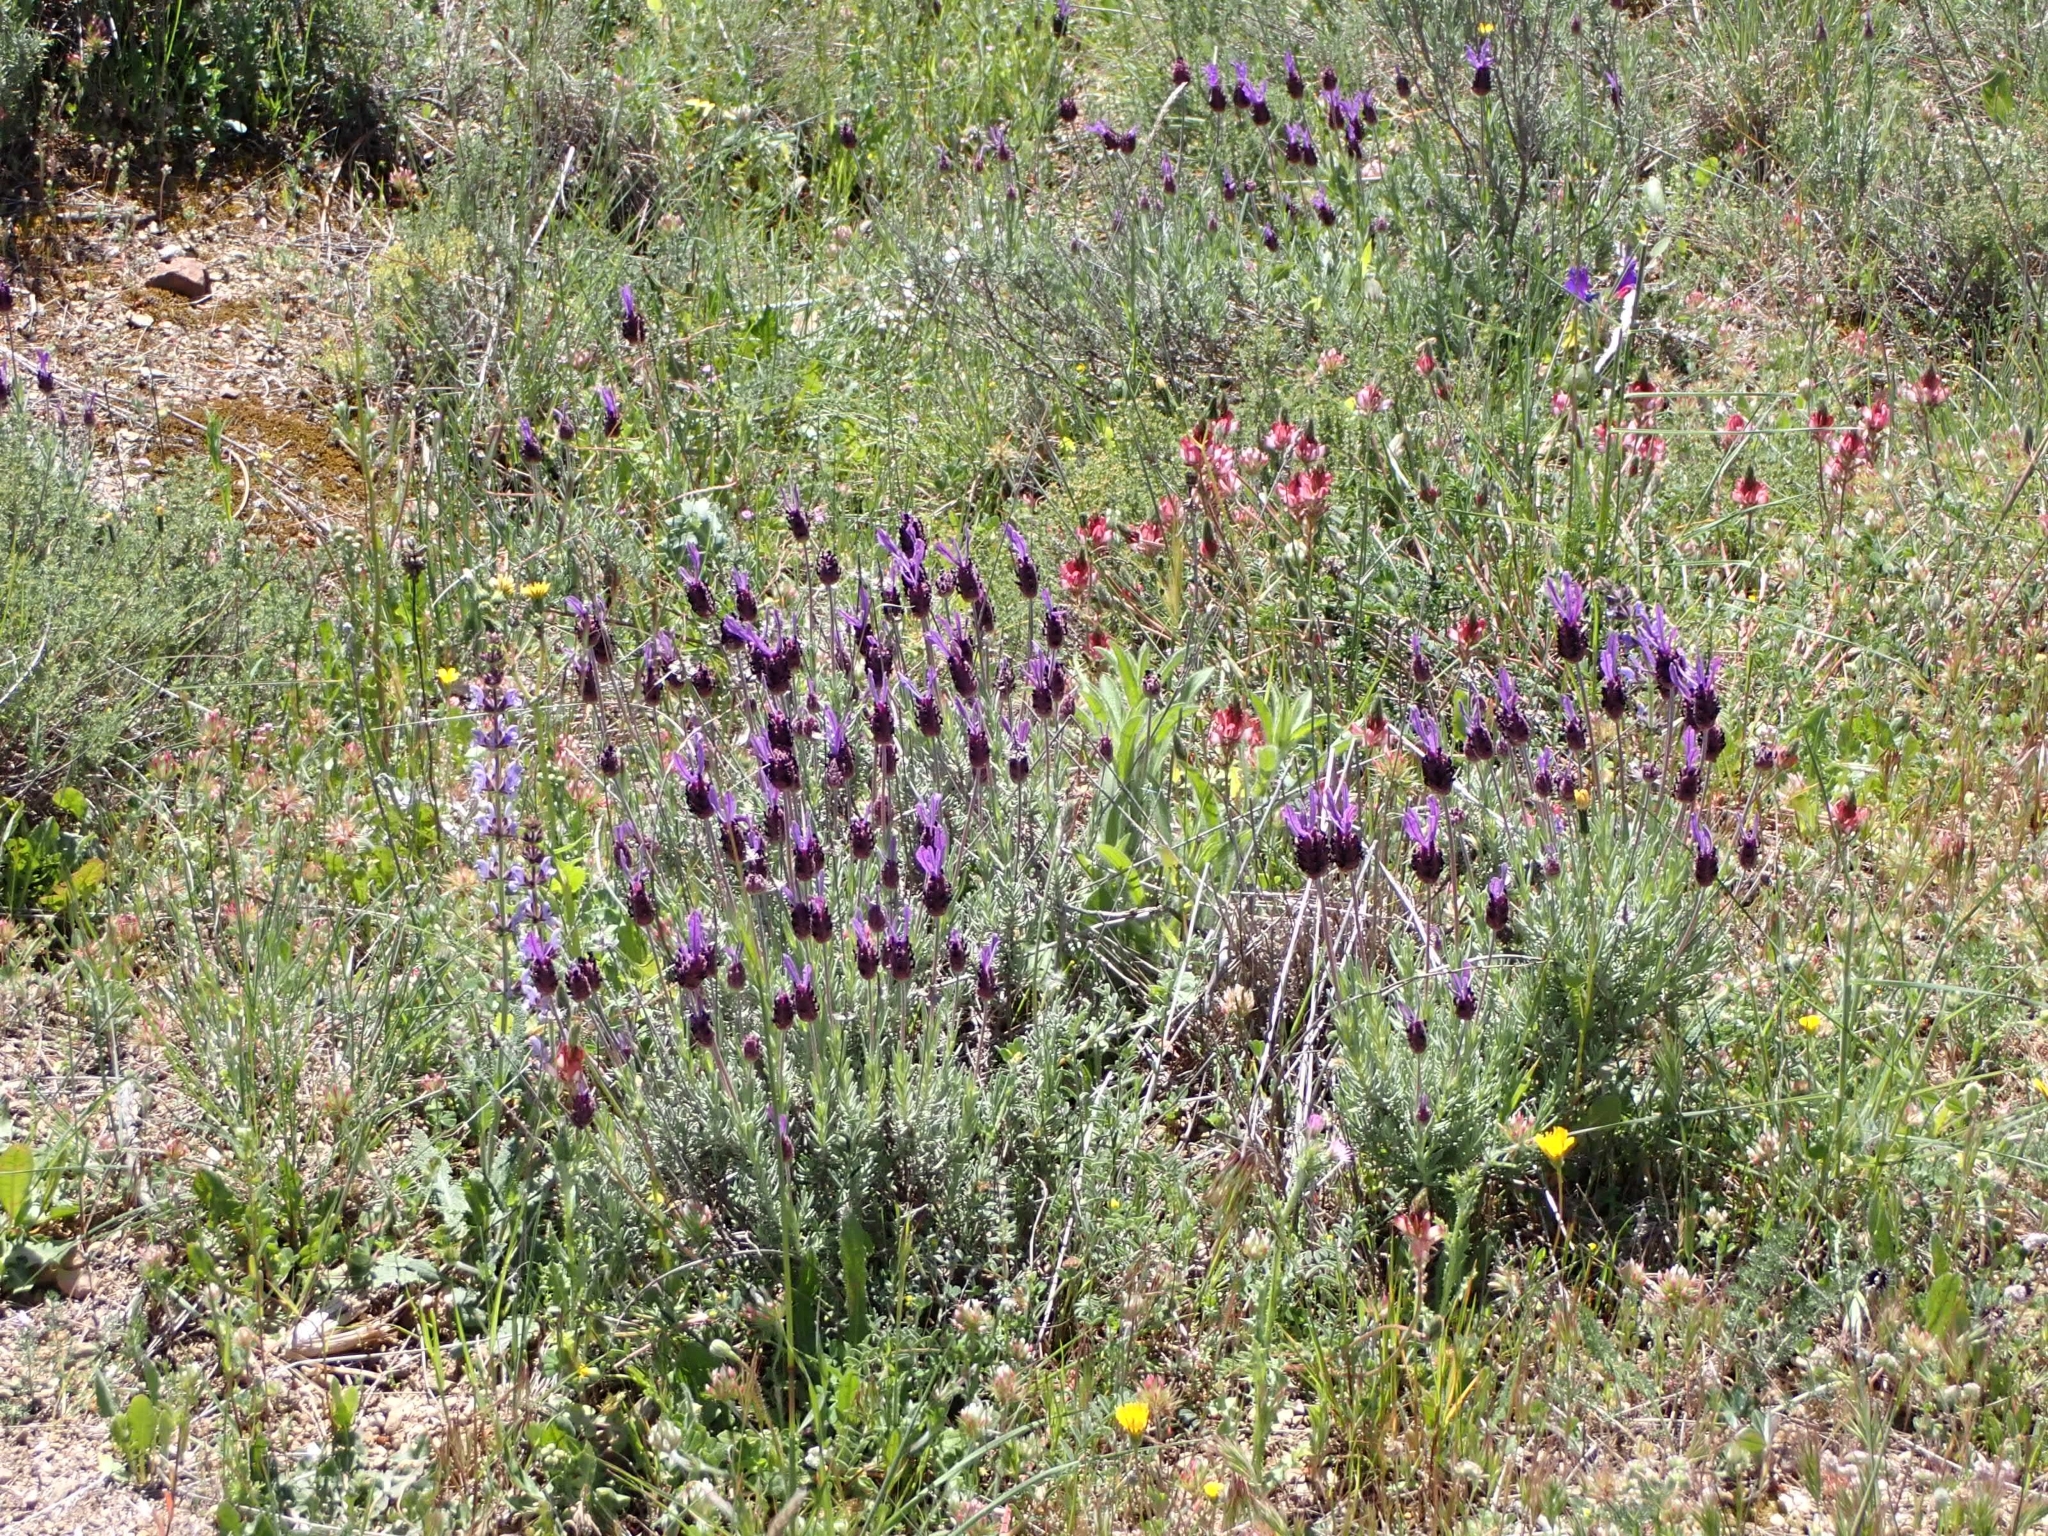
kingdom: Plantae
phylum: Tracheophyta
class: Magnoliopsida
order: Lamiales
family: Lamiaceae
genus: Lavandula
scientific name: Lavandula pedunculata
